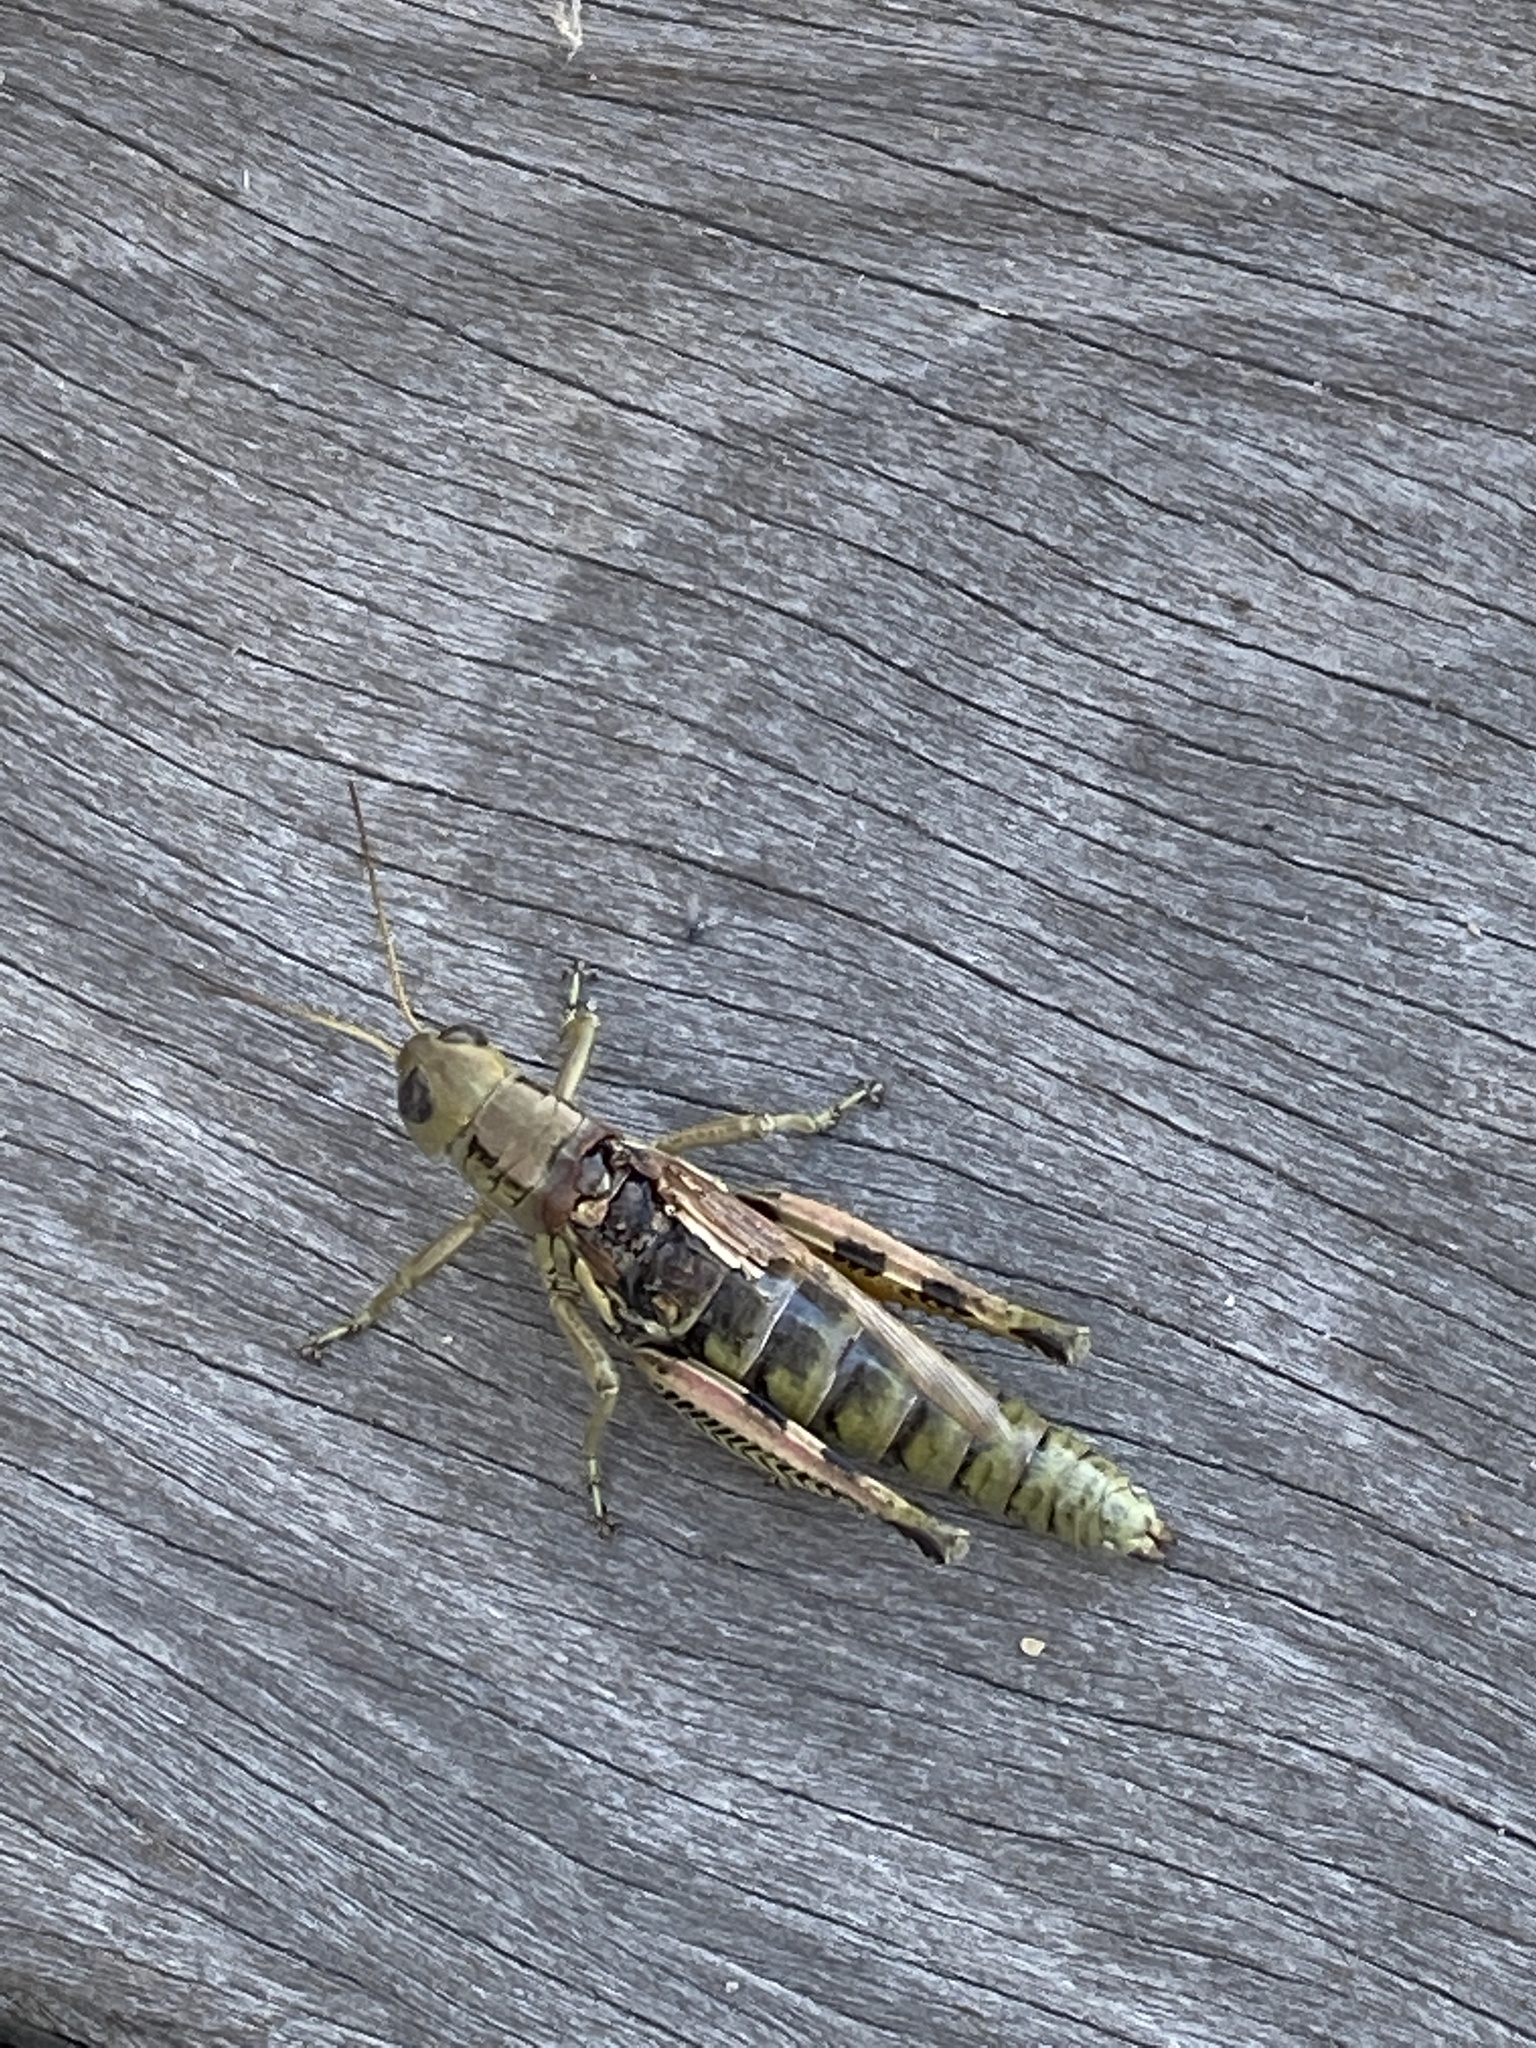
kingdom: Animalia
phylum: Arthropoda
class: Insecta
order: Orthoptera
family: Acrididae
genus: Melanoplus
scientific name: Melanoplus differentialis
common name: Differential grasshopper
